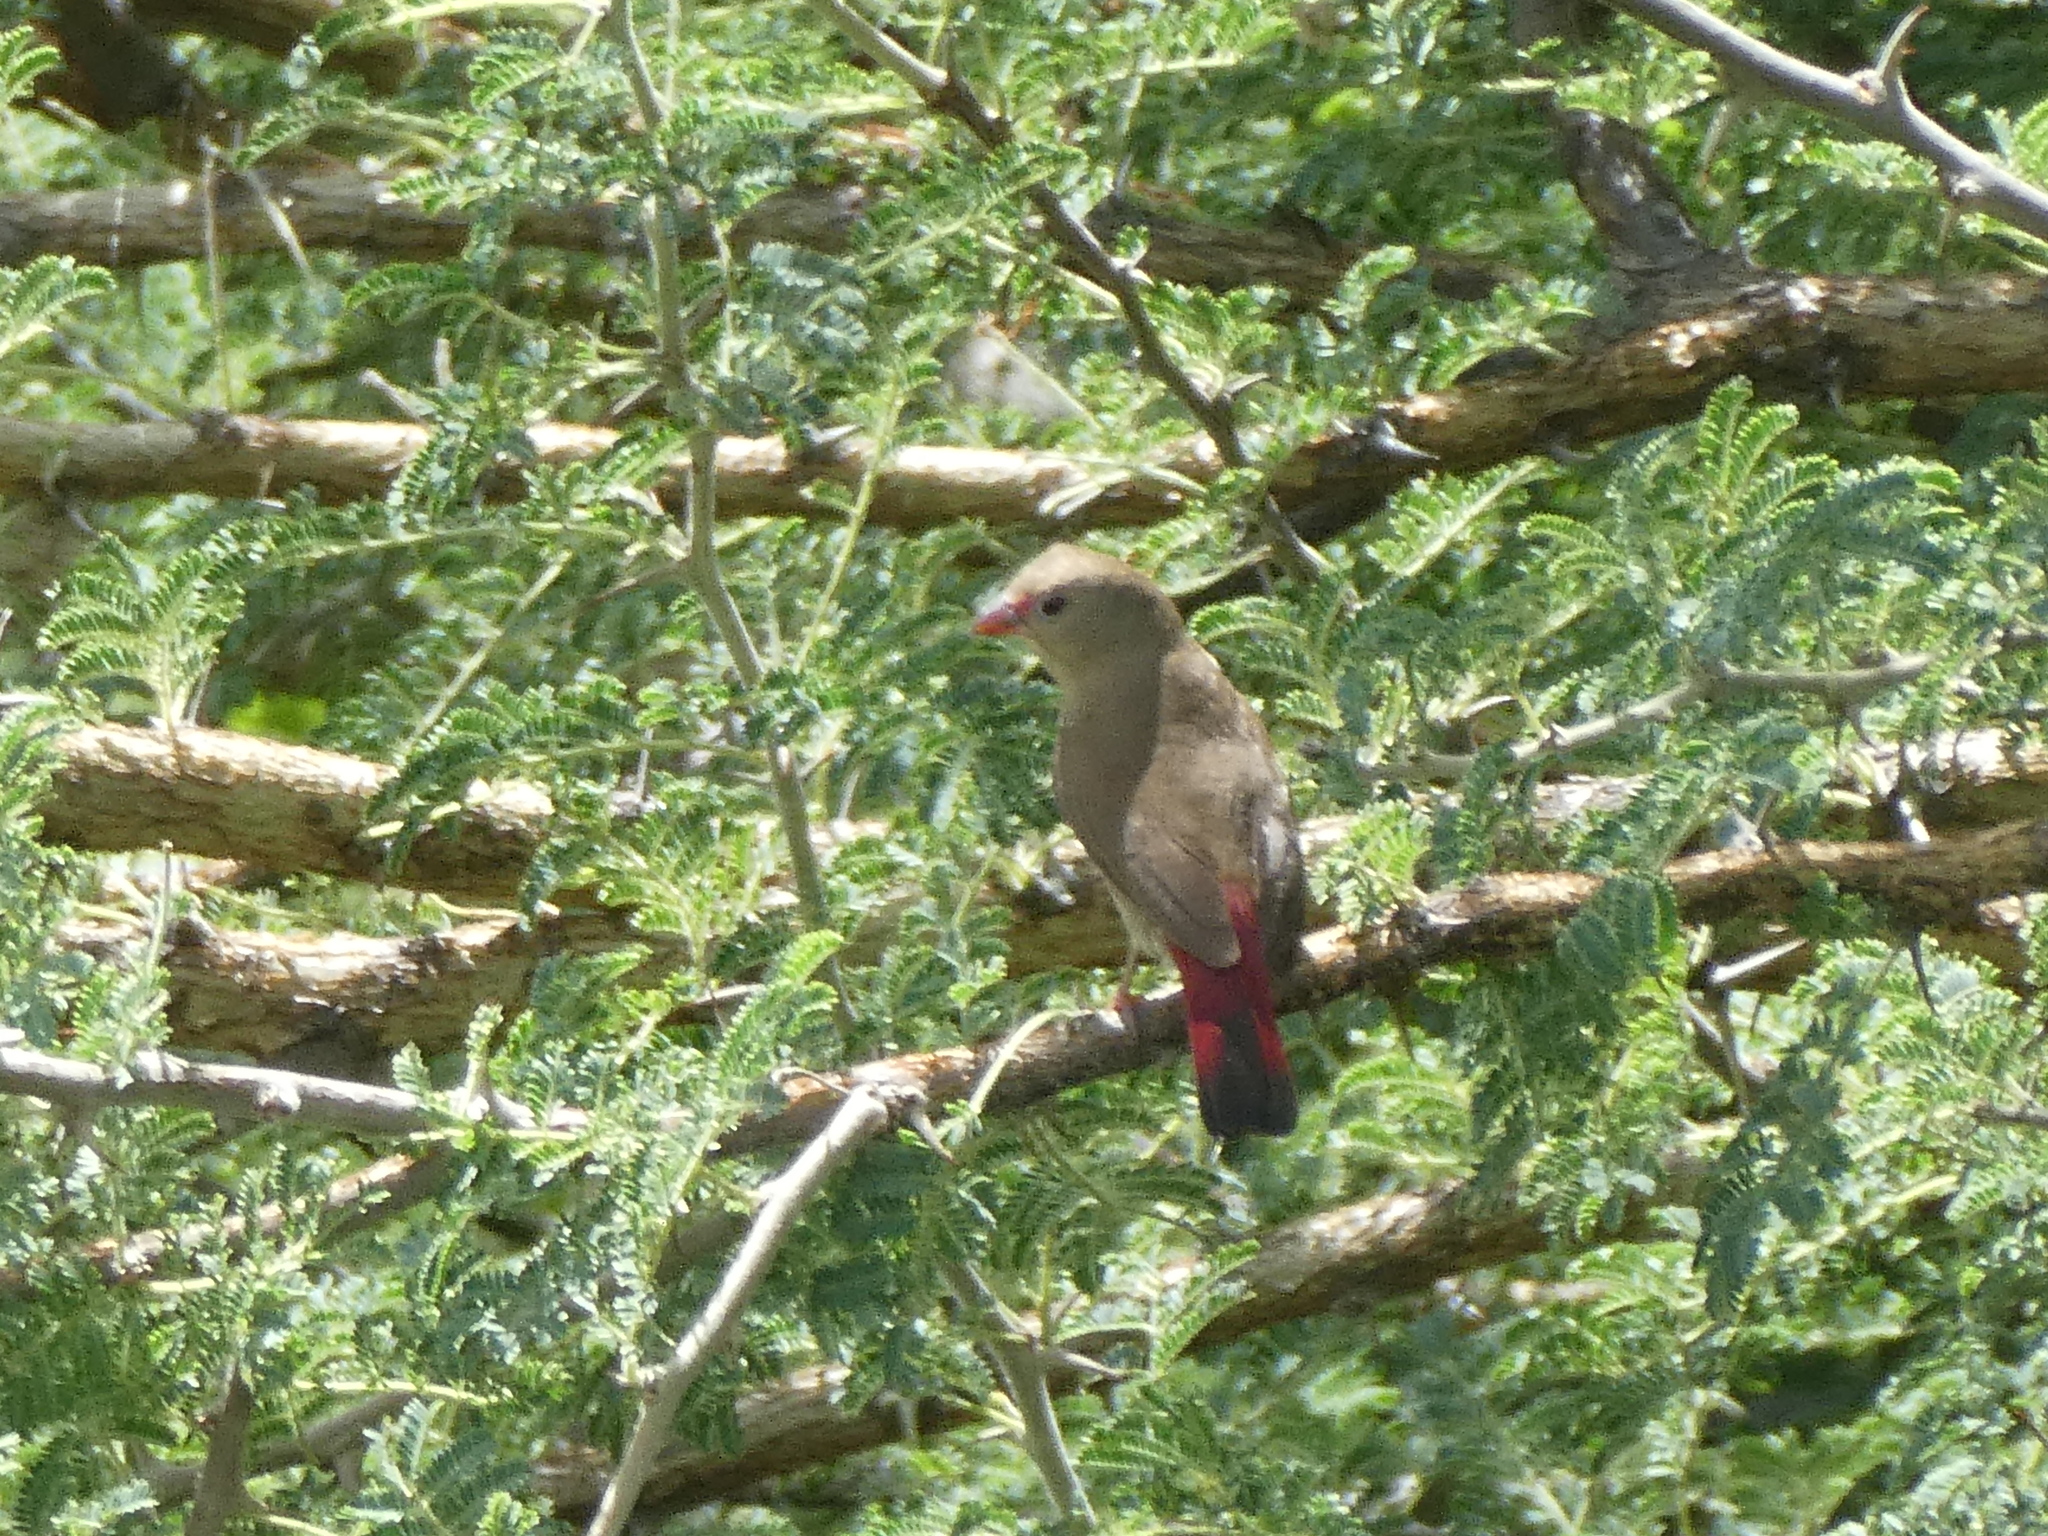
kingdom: Animalia
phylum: Chordata
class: Aves
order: Passeriformes
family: Estrildidae
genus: Lagonosticta
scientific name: Lagonosticta senegala
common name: Red-billed firefinch
